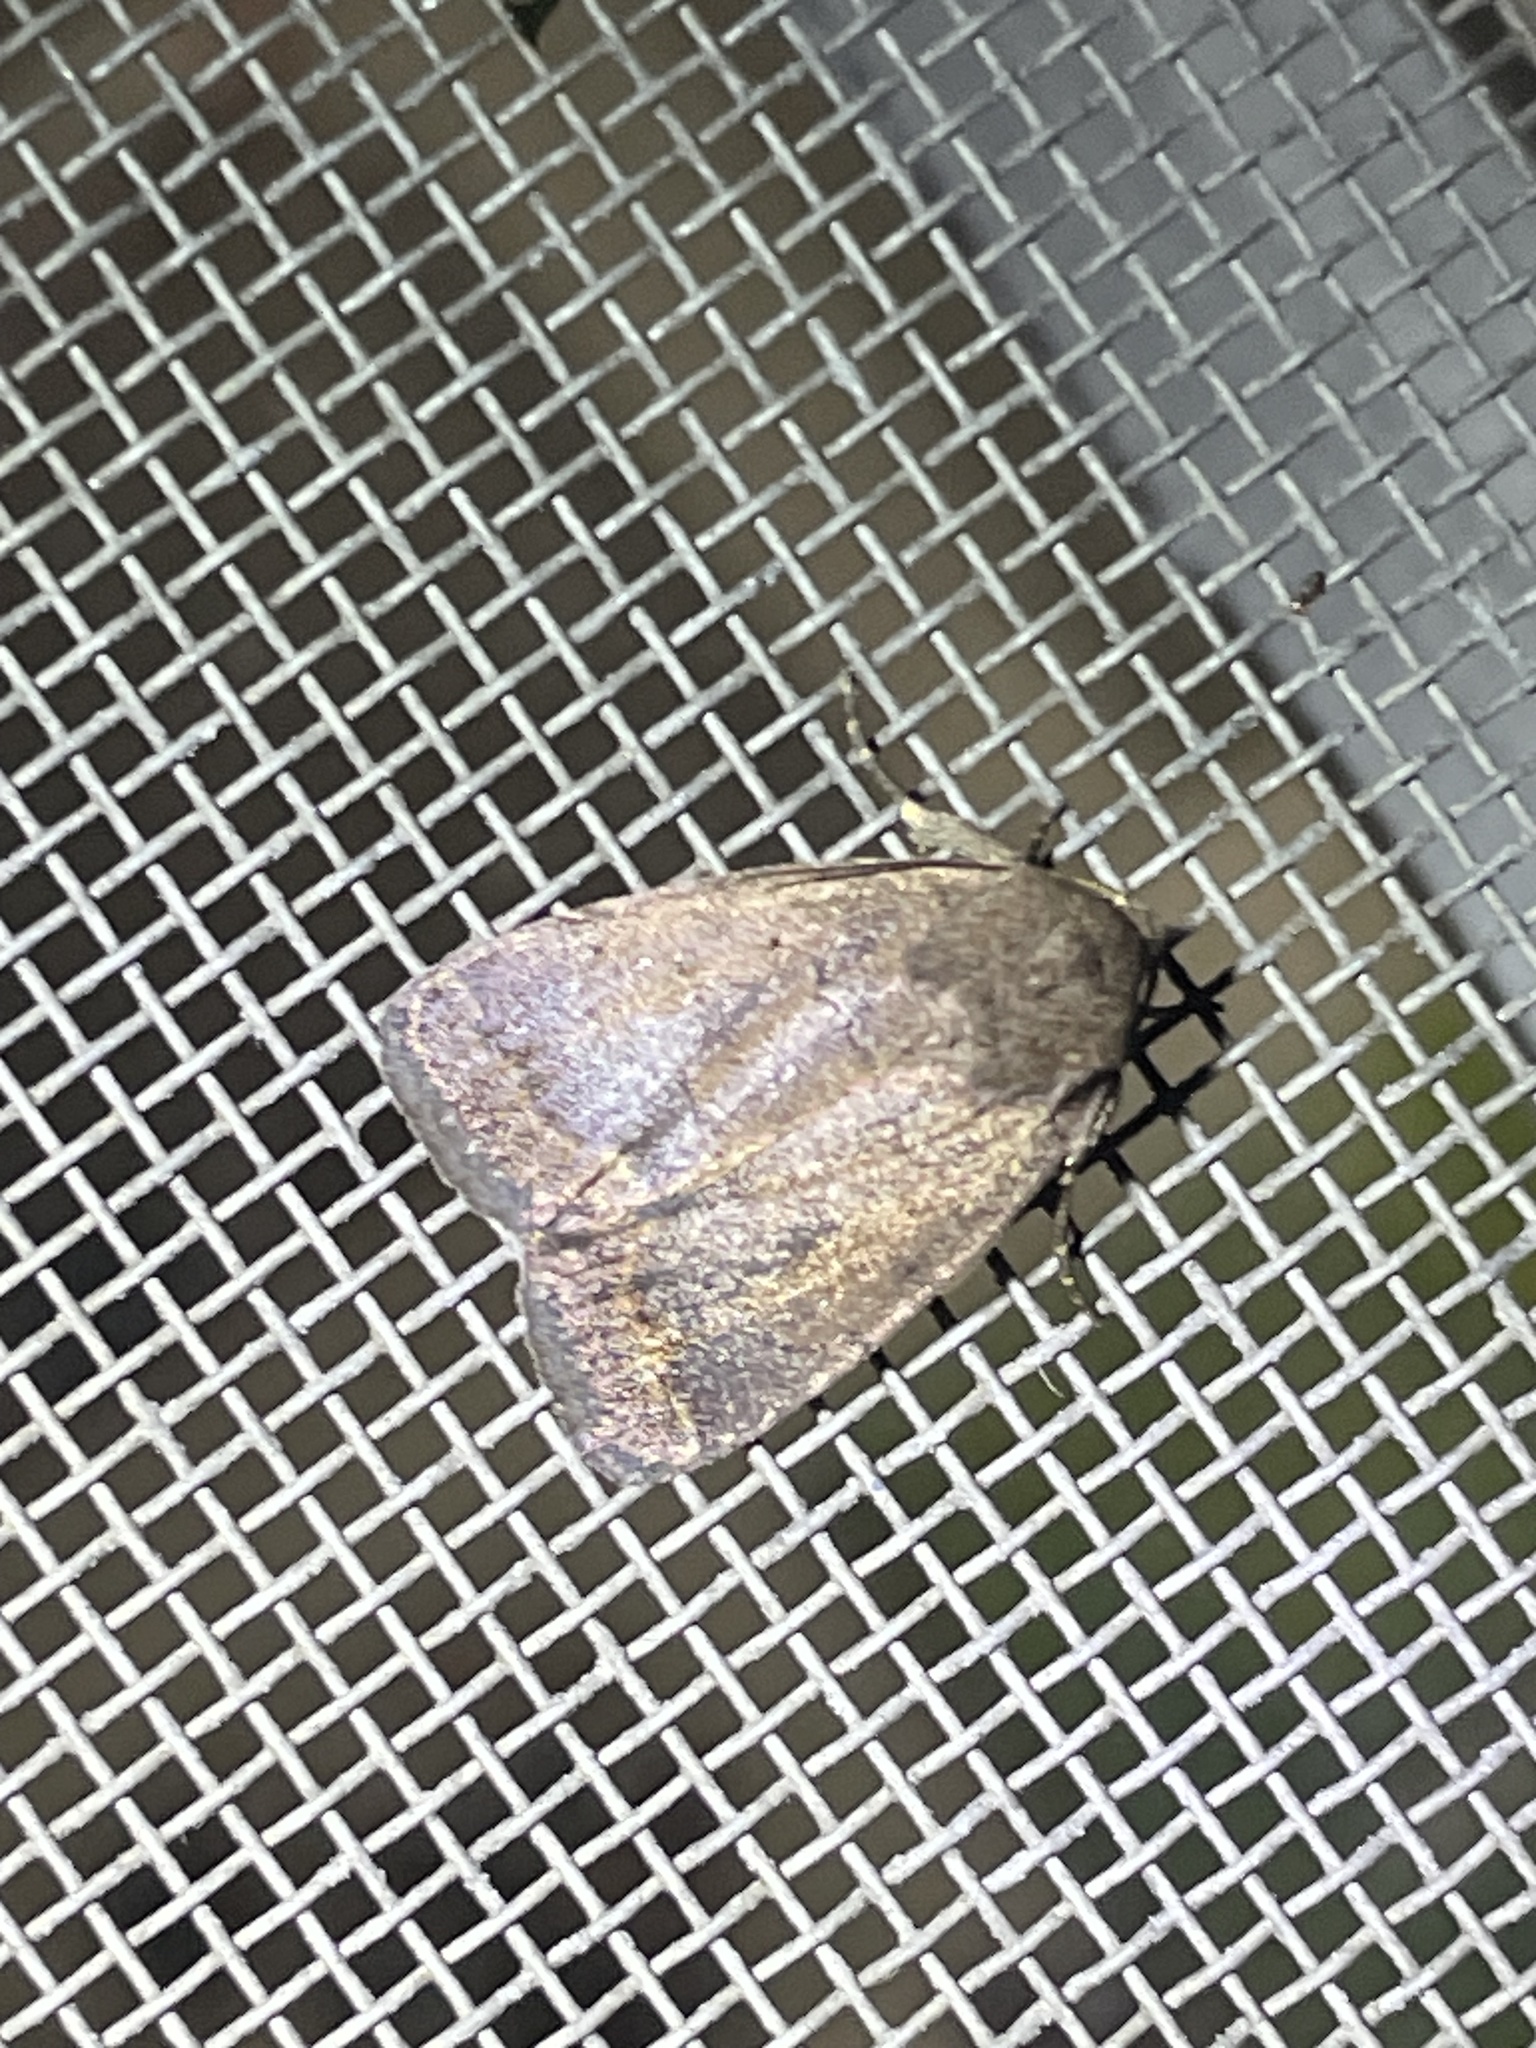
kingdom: Animalia
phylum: Arthropoda
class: Insecta
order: Lepidoptera
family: Noctuidae
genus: Athetis
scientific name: Athetis tarda
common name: Slowpoke moth
